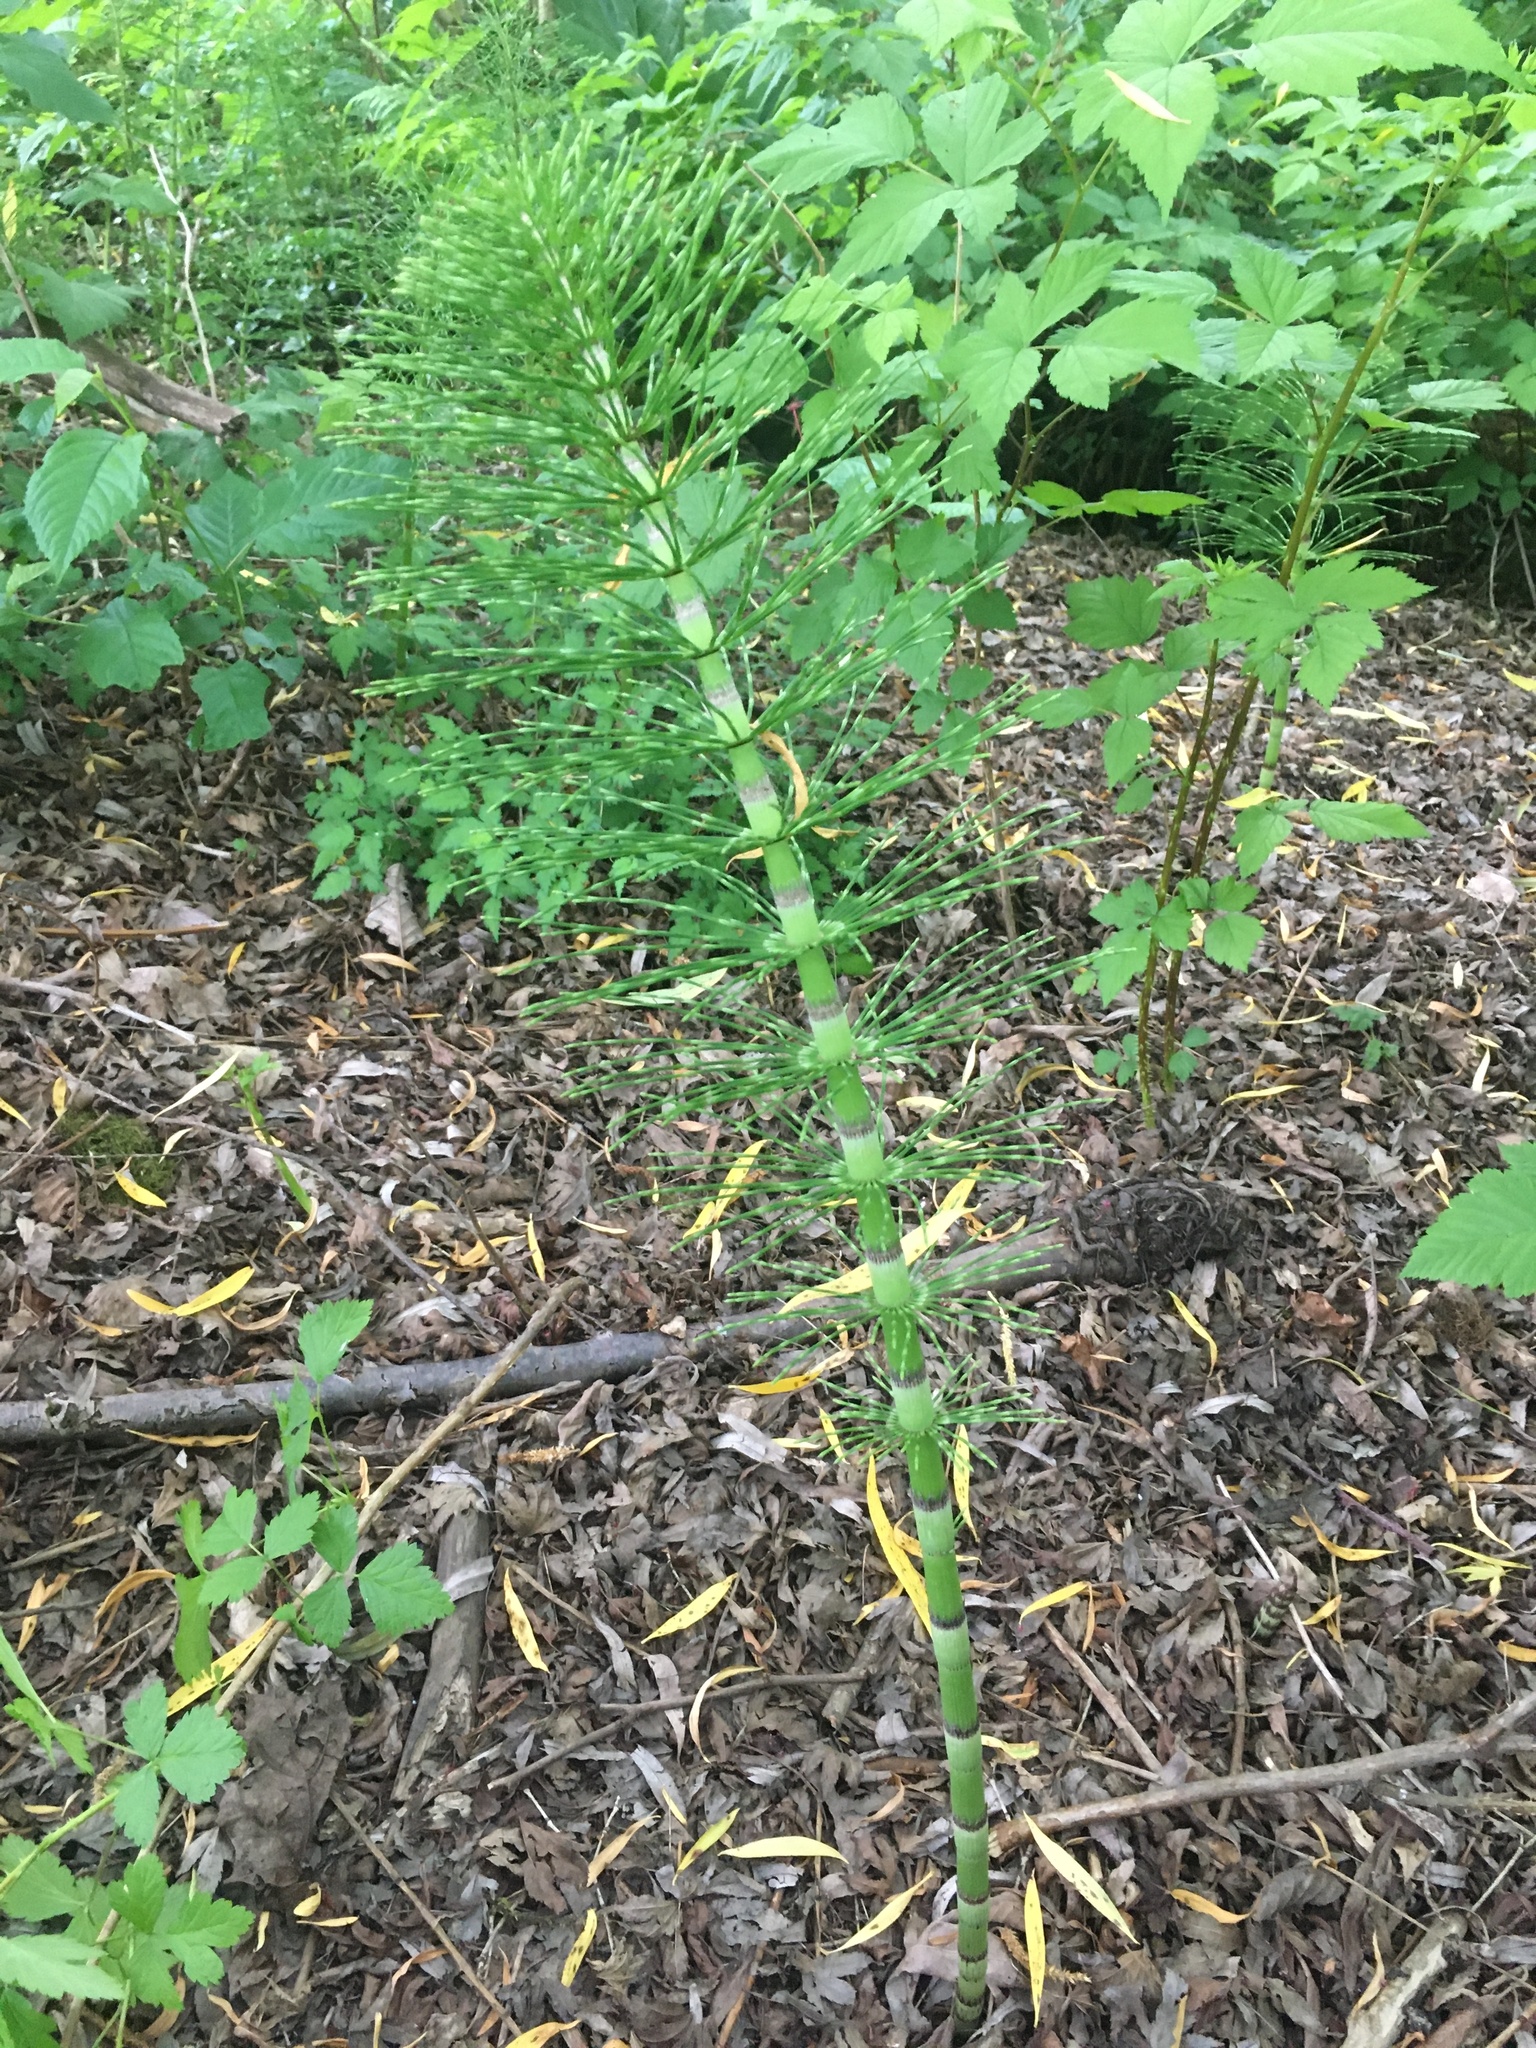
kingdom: Plantae
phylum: Tracheophyta
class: Polypodiopsida
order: Equisetales
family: Equisetaceae
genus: Equisetum
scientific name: Equisetum telmateia
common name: Great horsetail
